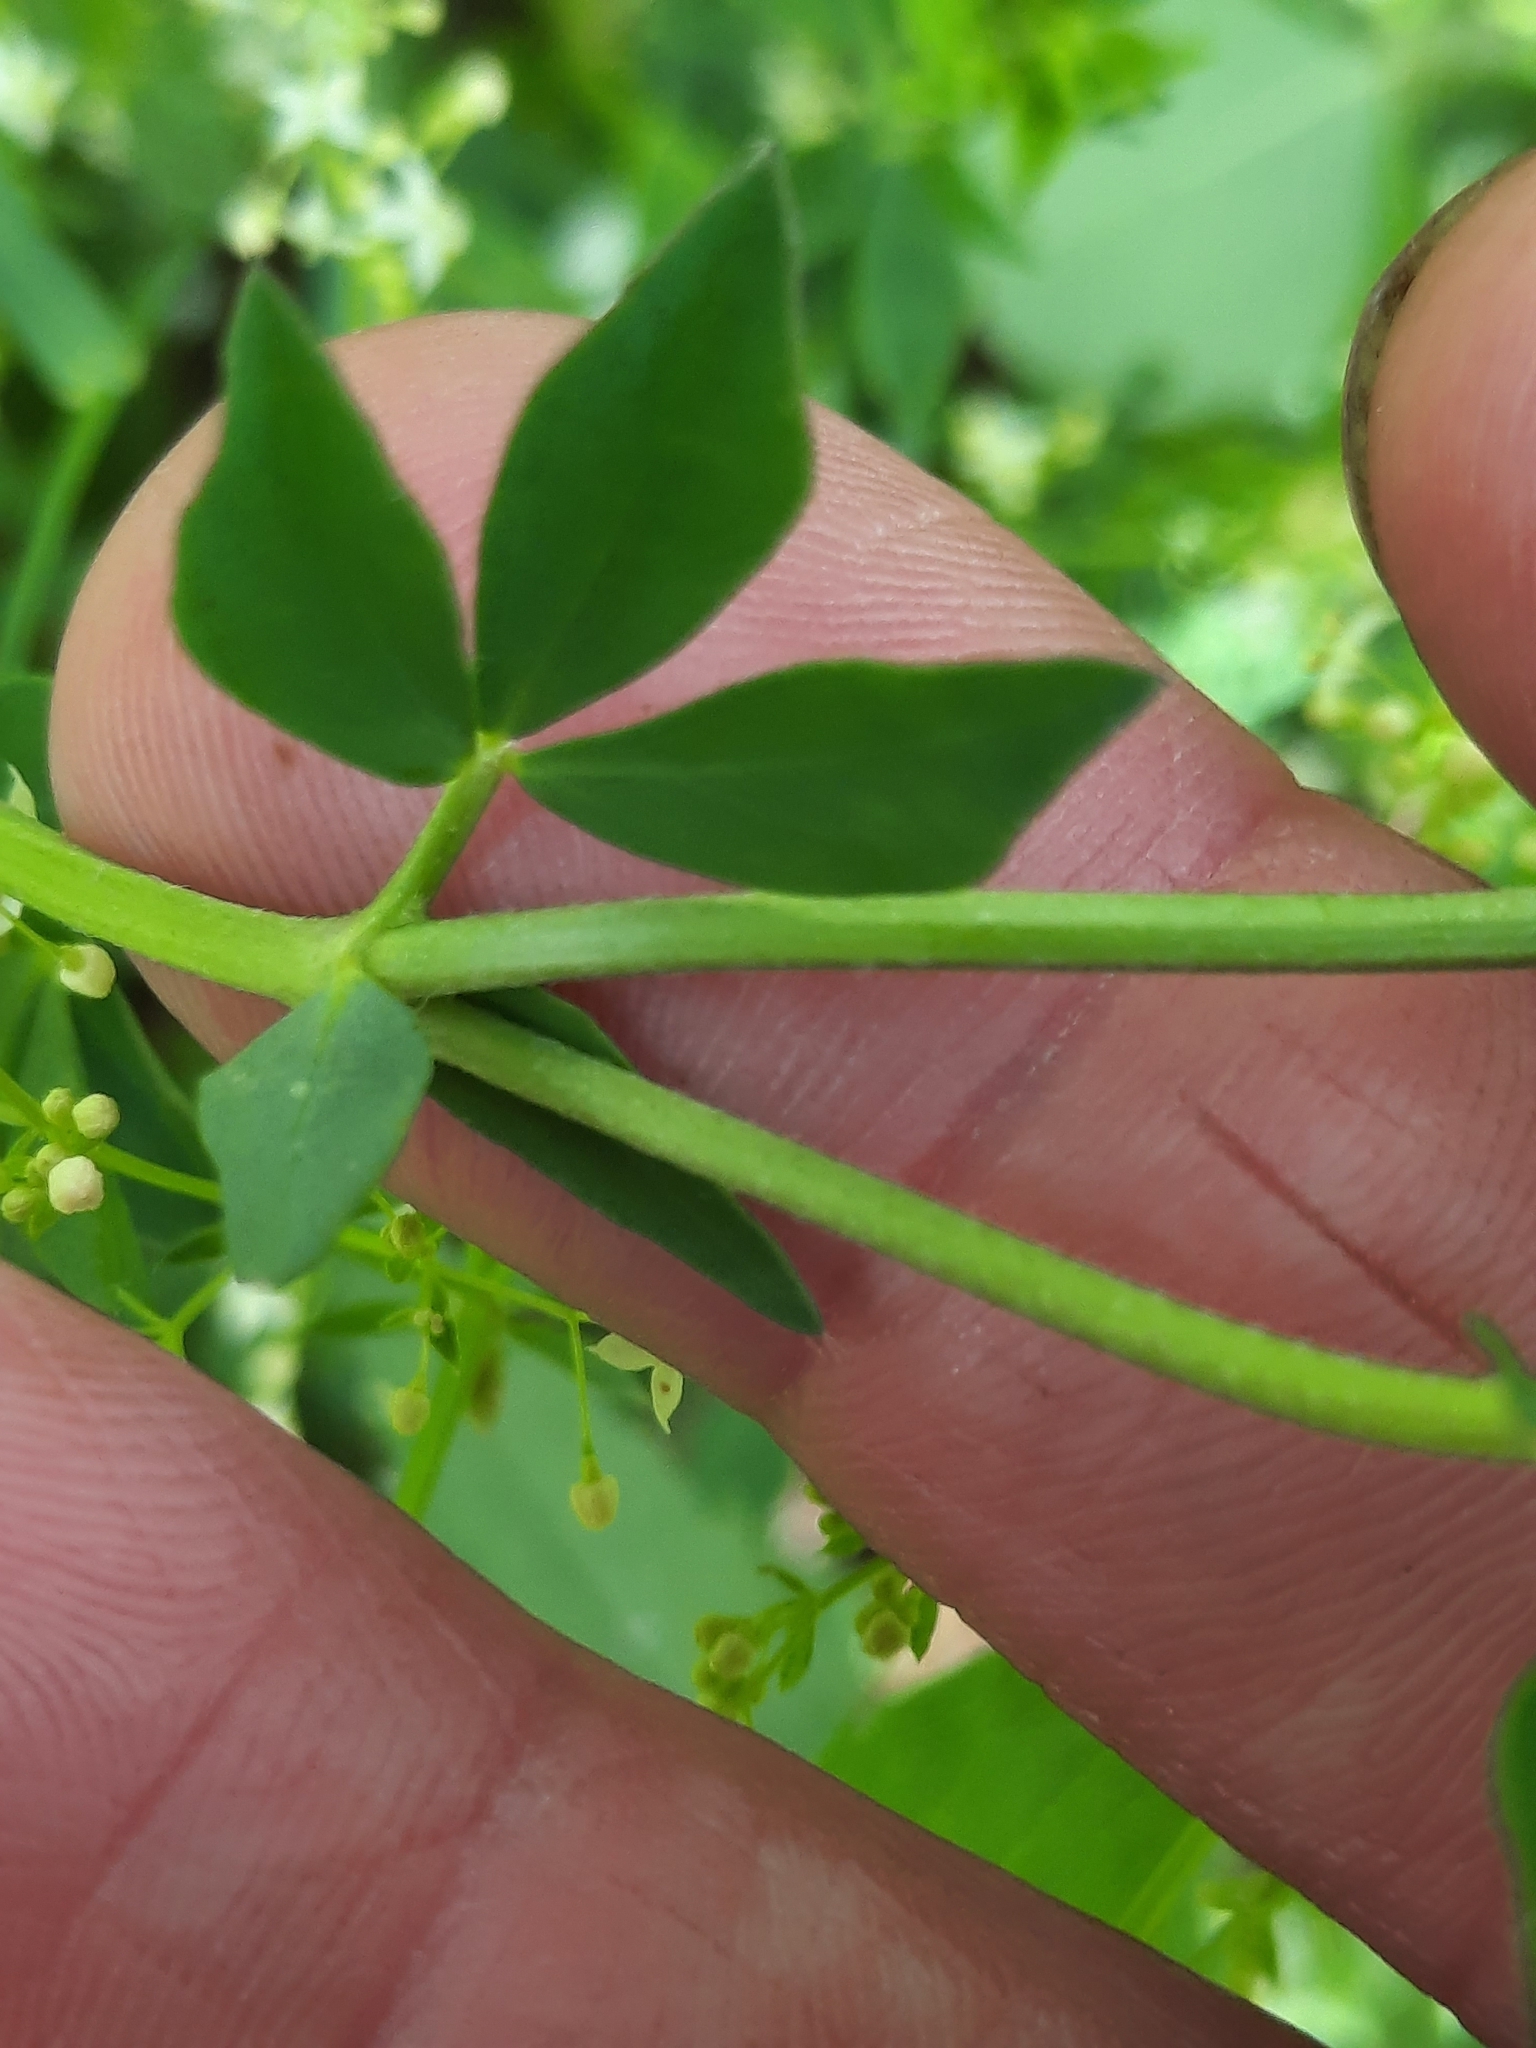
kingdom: Plantae
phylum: Tracheophyta
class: Magnoliopsida
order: Fabales
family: Fabaceae
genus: Lotus
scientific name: Lotus corniculatus
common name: Common bird's-foot-trefoil
